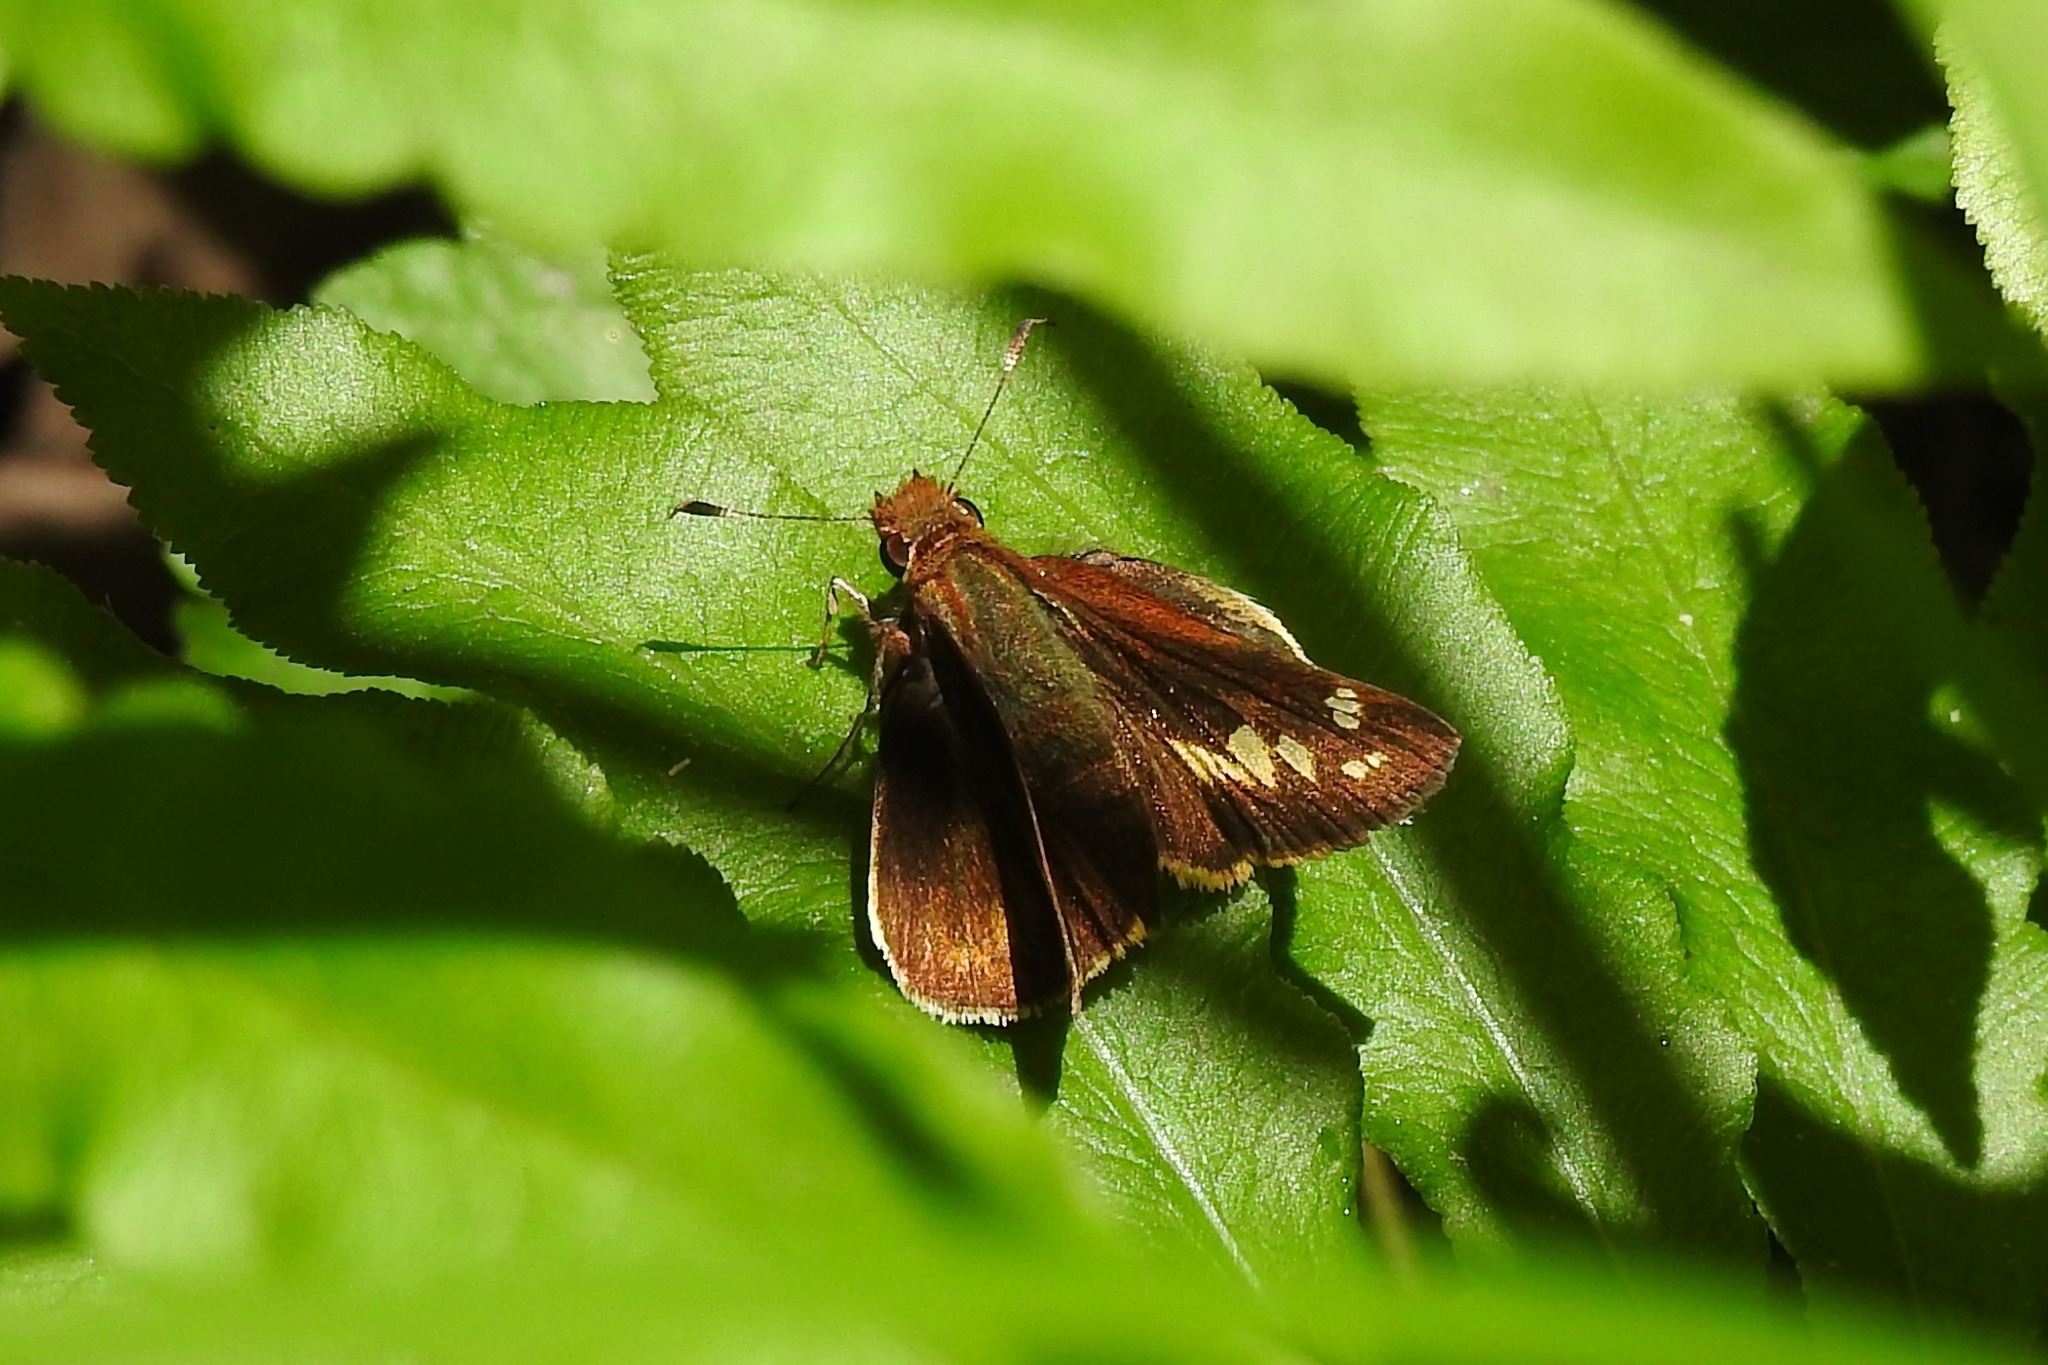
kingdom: Animalia
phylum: Arthropoda
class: Insecta
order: Lepidoptera
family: Hesperiidae
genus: Lon
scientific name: Lon zabulon
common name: Zabulon skipper
